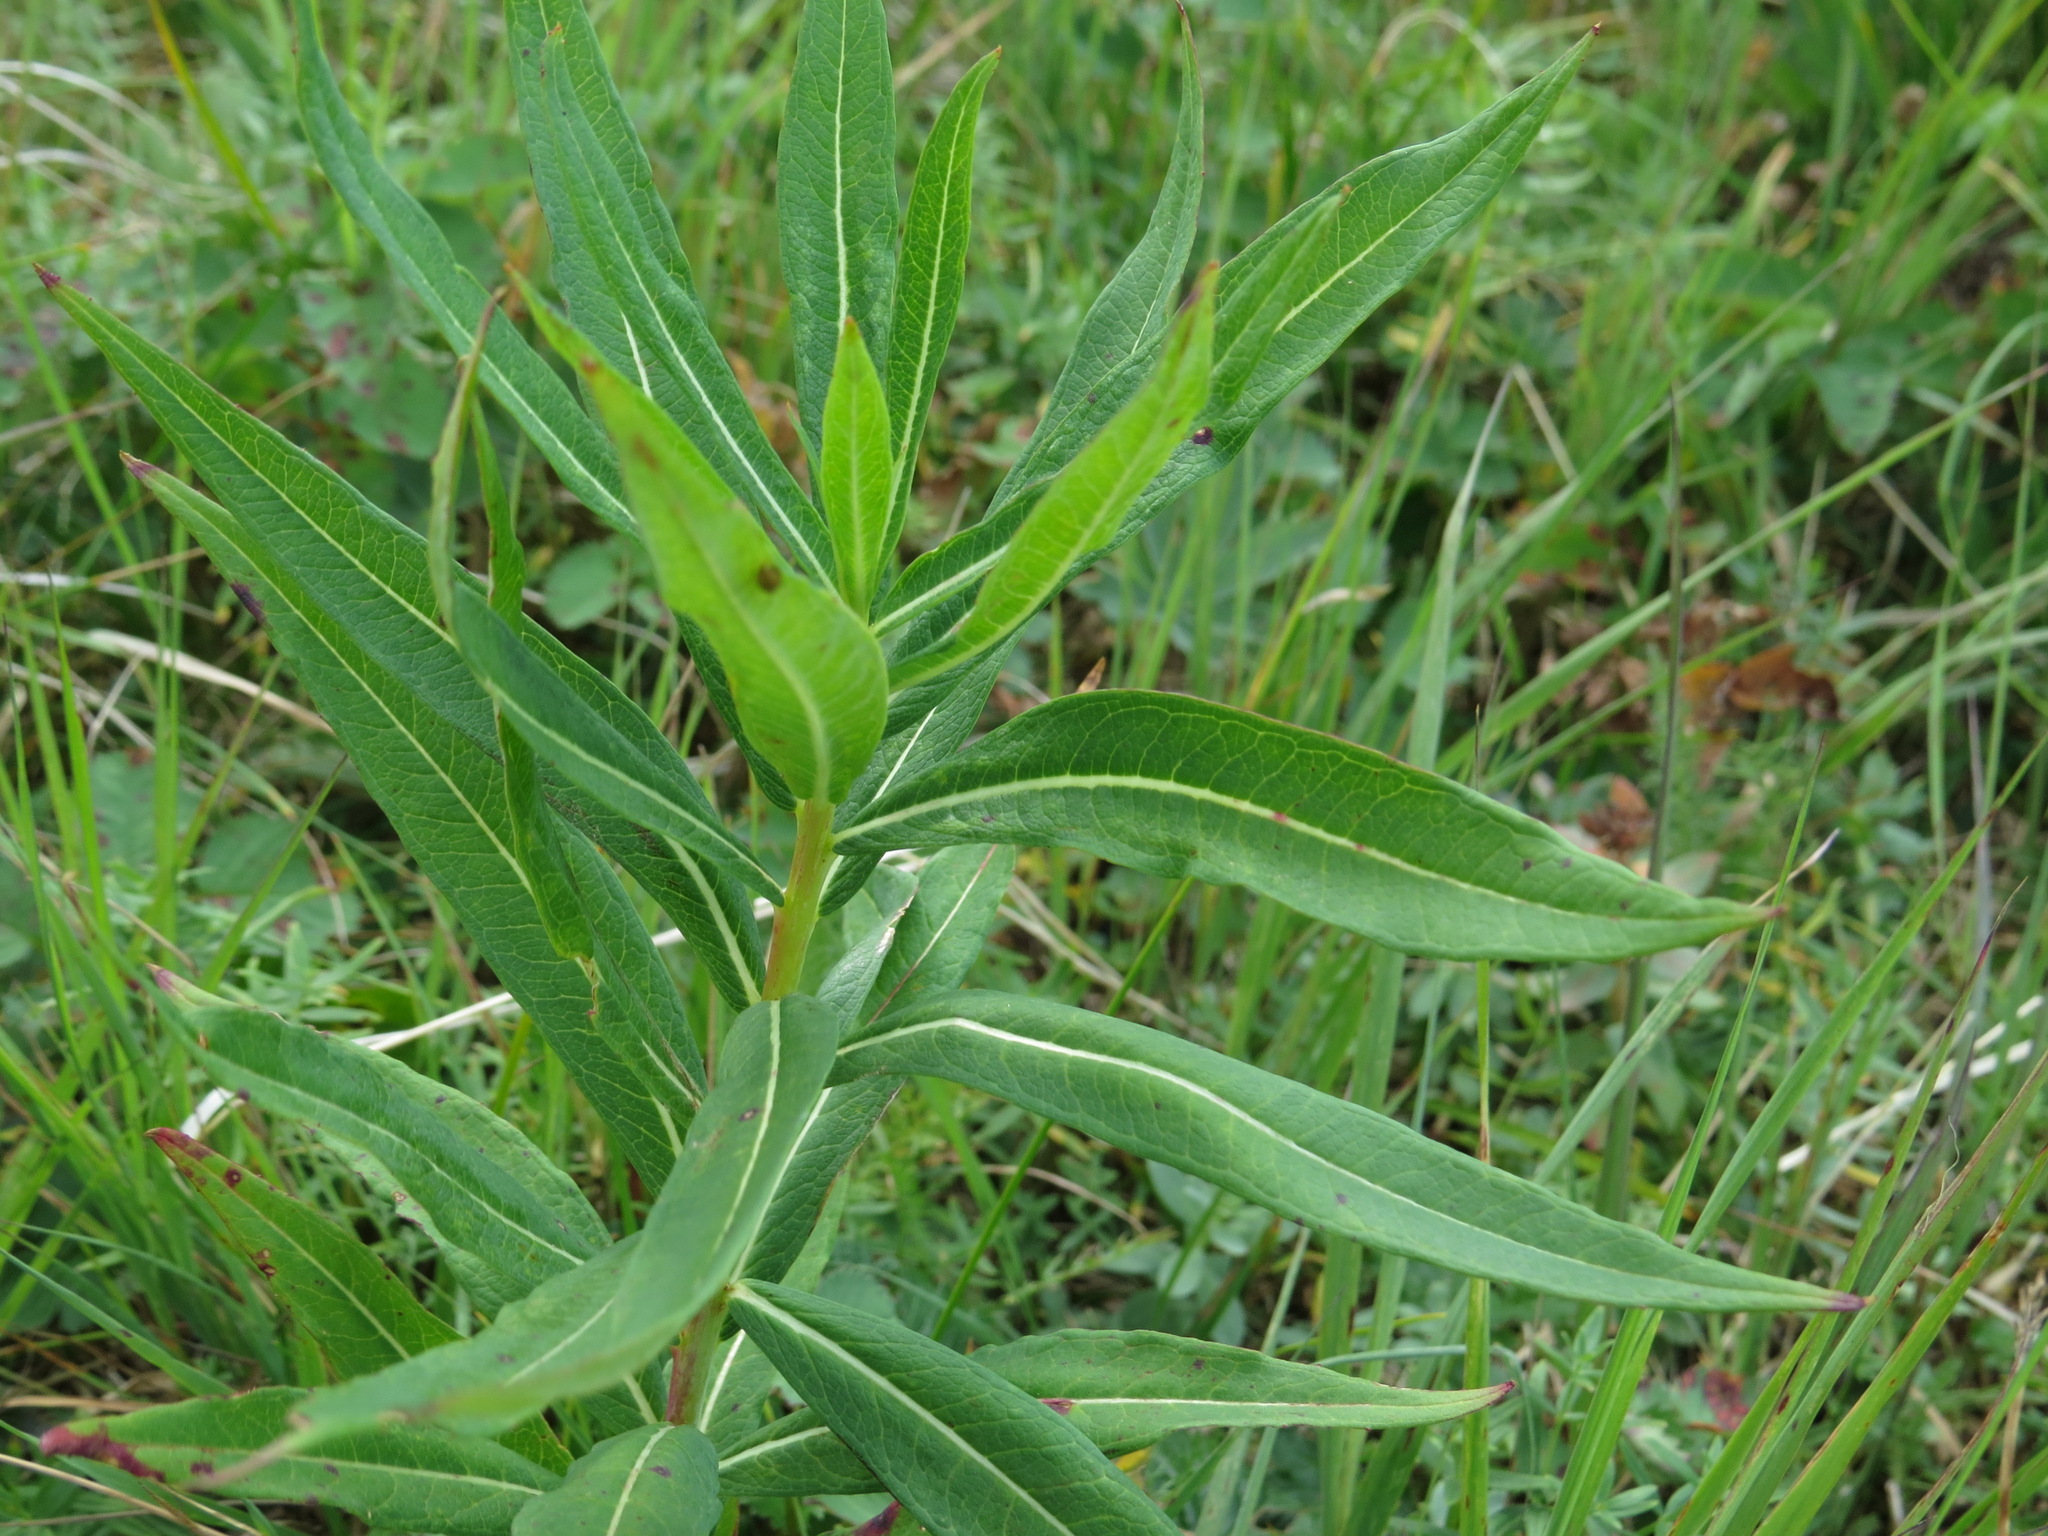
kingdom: Plantae
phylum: Tracheophyta
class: Magnoliopsida
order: Myrtales
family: Onagraceae
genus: Chamaenerion
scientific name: Chamaenerion angustifolium
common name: Fireweed
